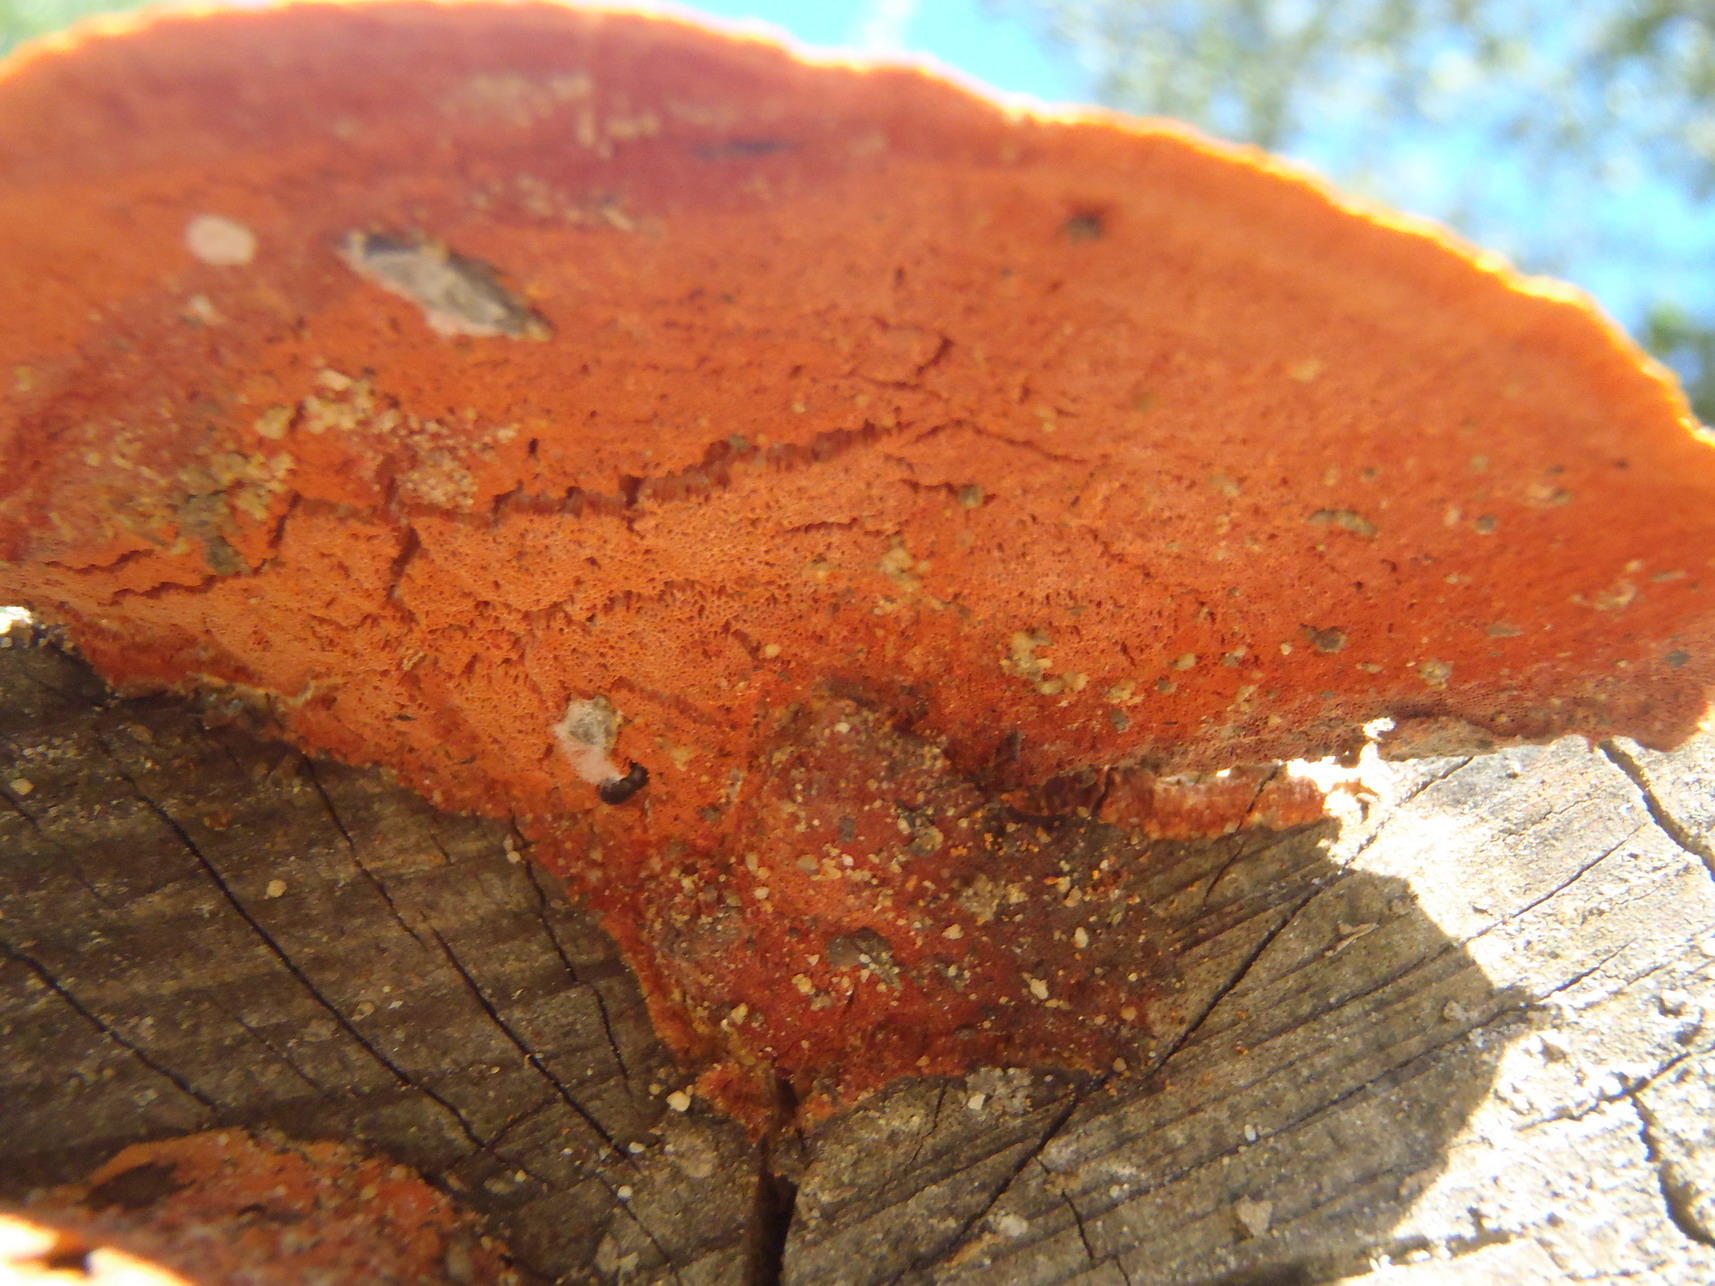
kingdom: Fungi
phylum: Basidiomycota
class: Agaricomycetes
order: Polyporales
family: Polyporaceae
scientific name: Polyporaceae
